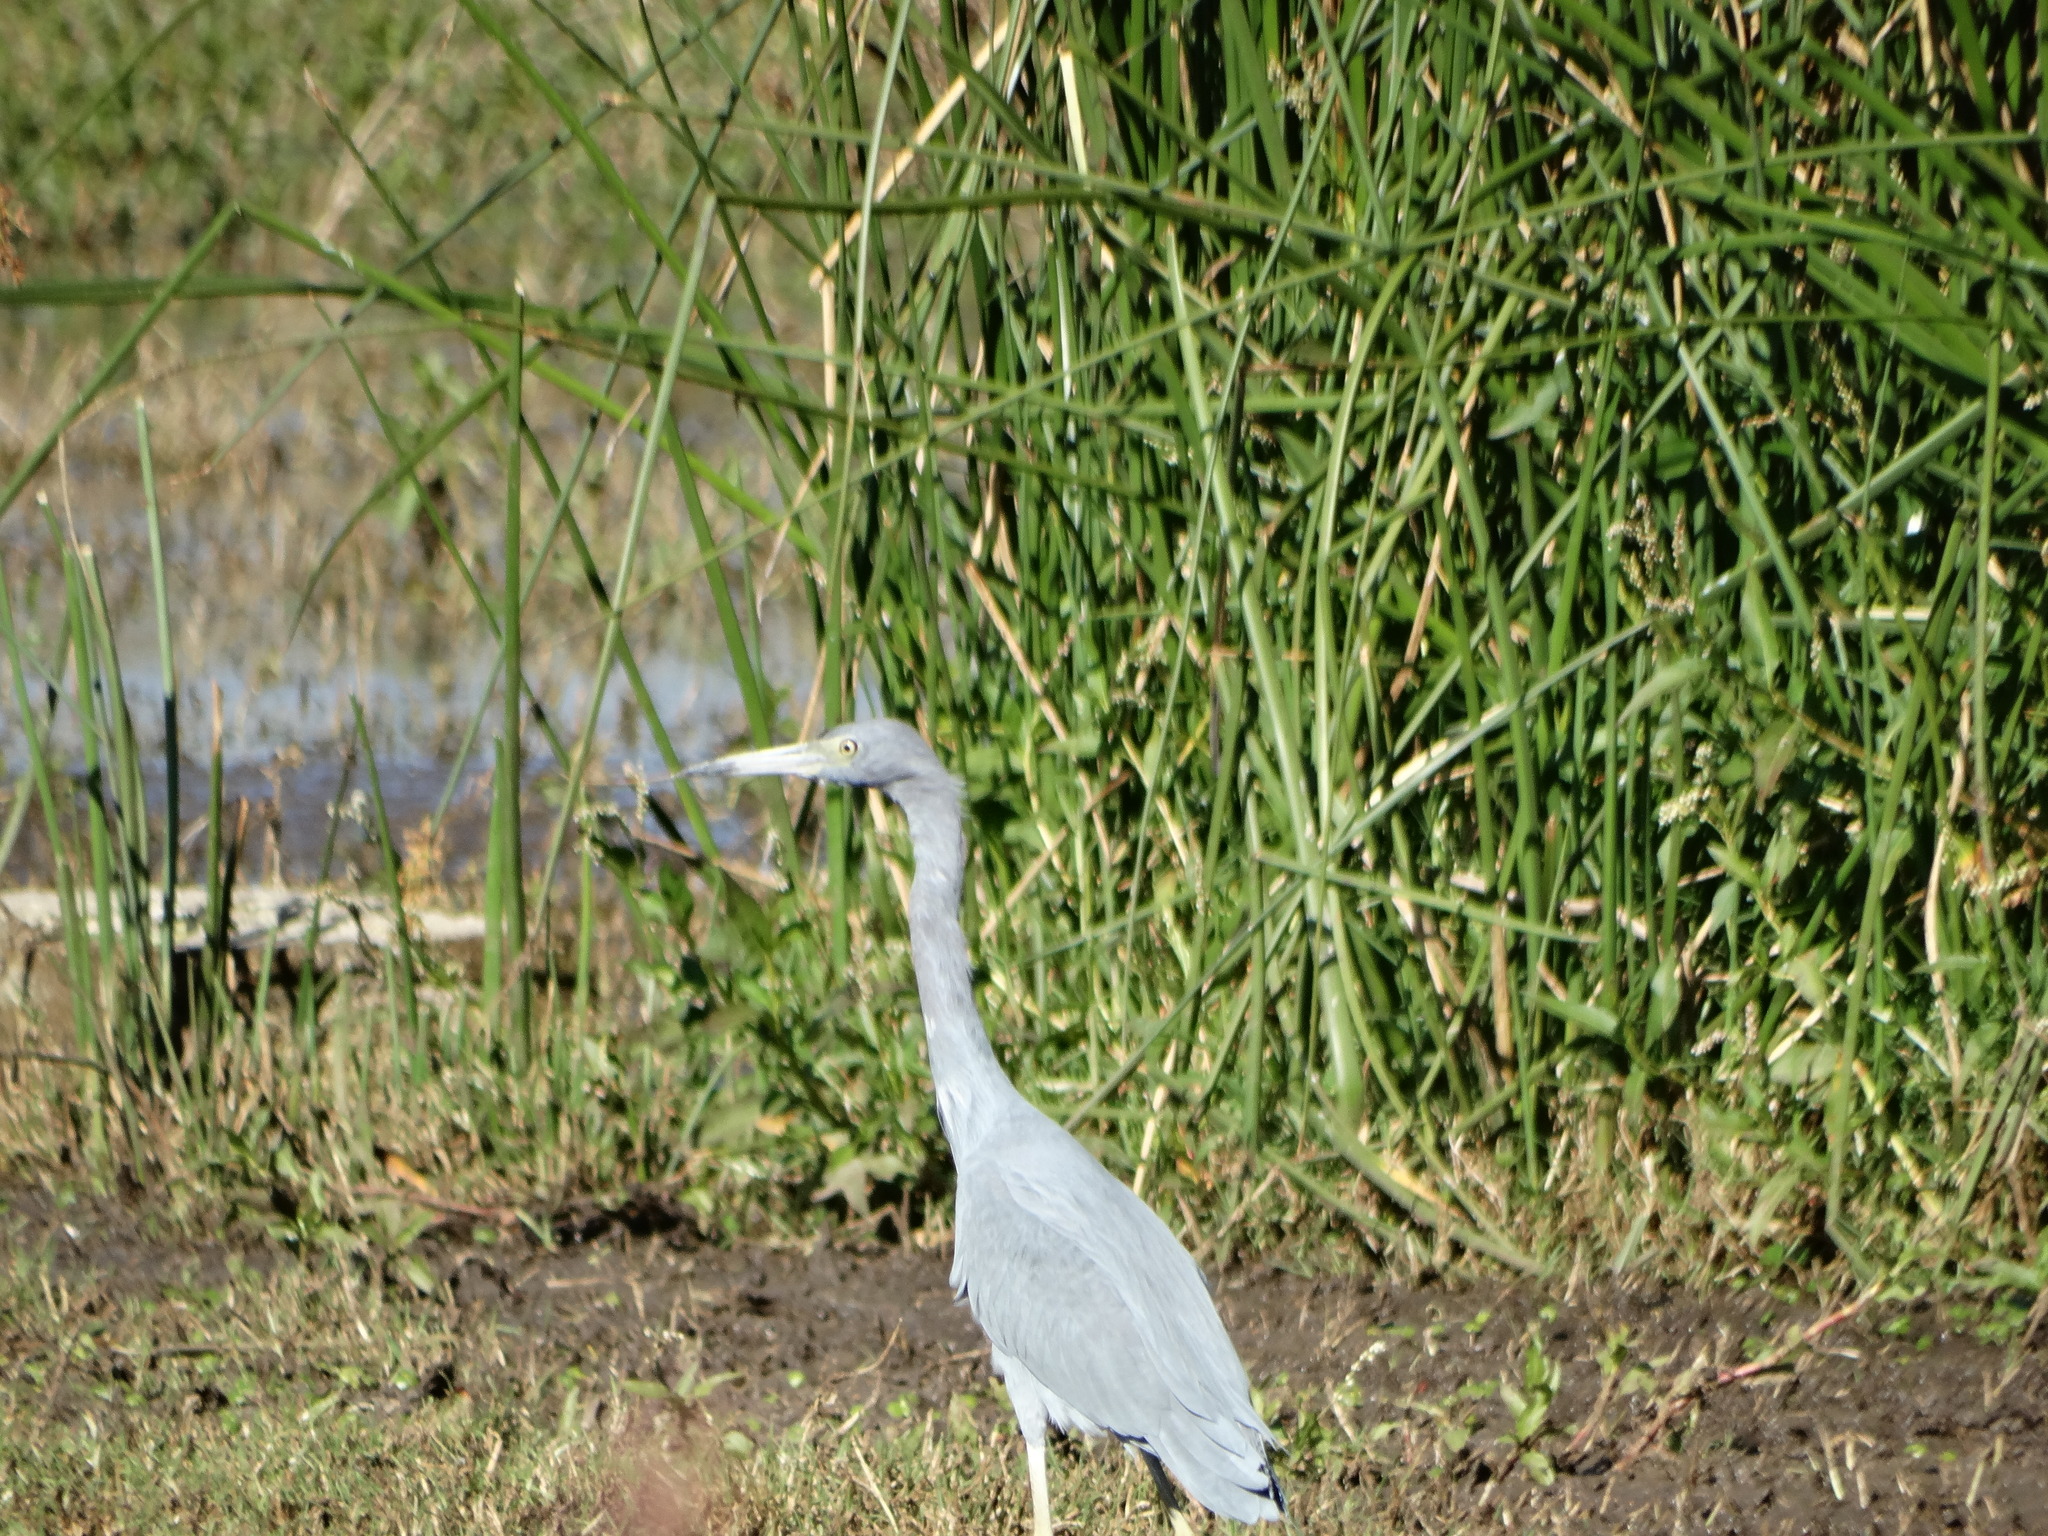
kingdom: Animalia
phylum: Chordata
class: Aves
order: Pelecaniformes
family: Ardeidae
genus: Egretta
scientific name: Egretta caerulea
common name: Little blue heron
